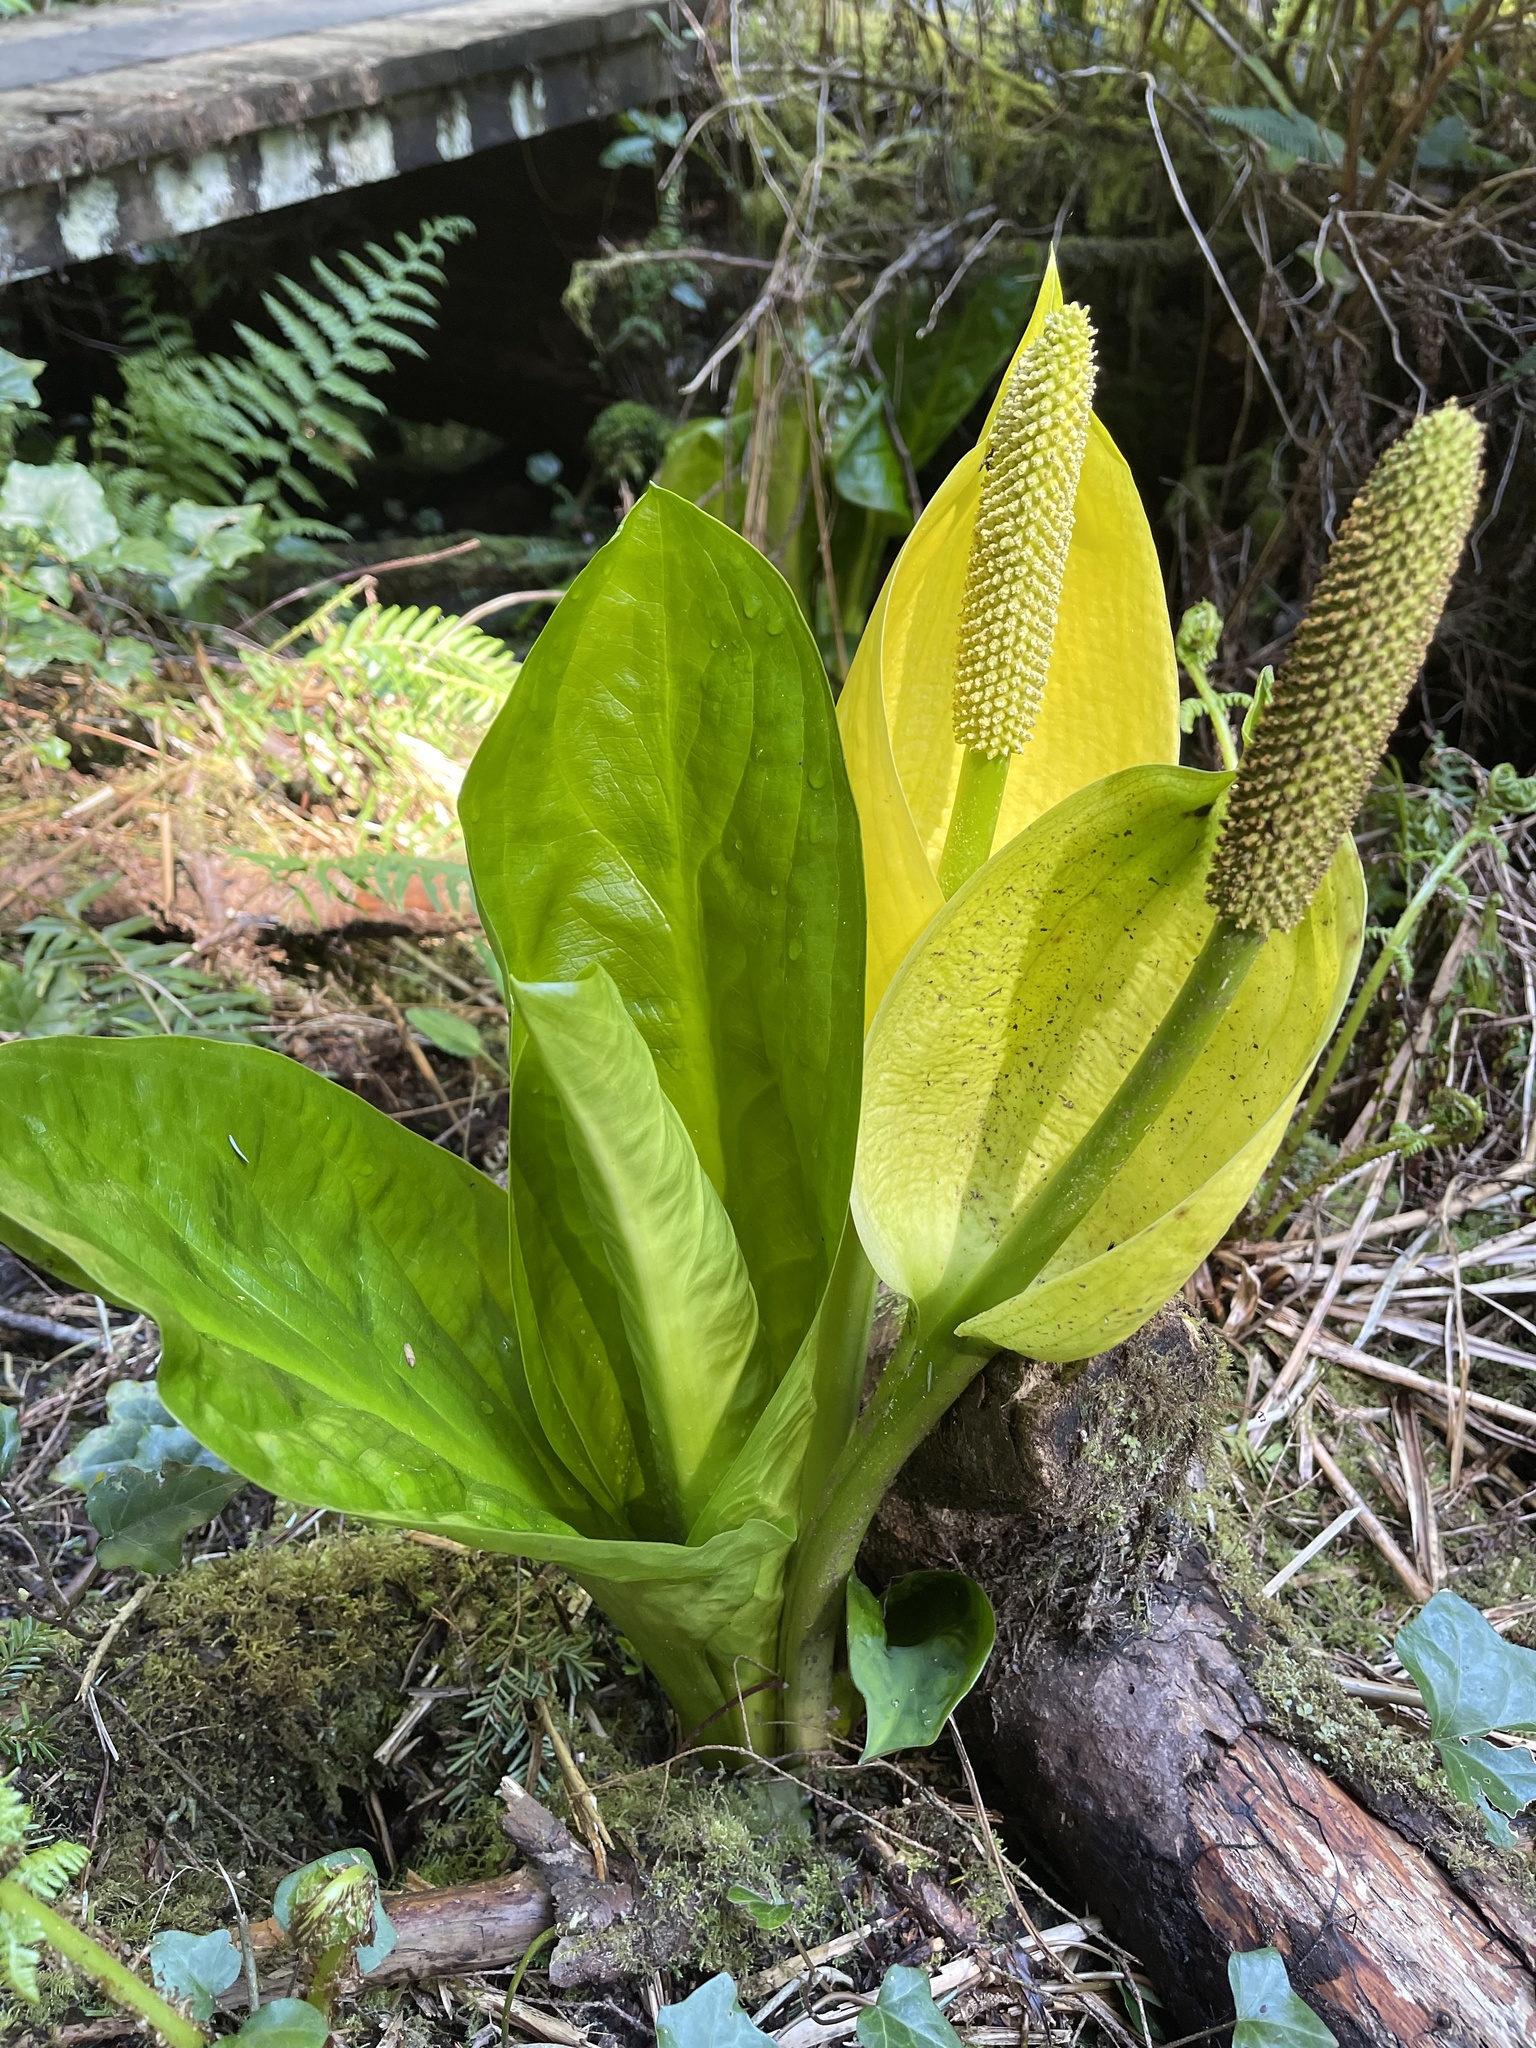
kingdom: Plantae
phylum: Tracheophyta
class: Liliopsida
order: Alismatales
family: Araceae
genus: Lysichiton
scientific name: Lysichiton americanus
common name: American skunk cabbage
